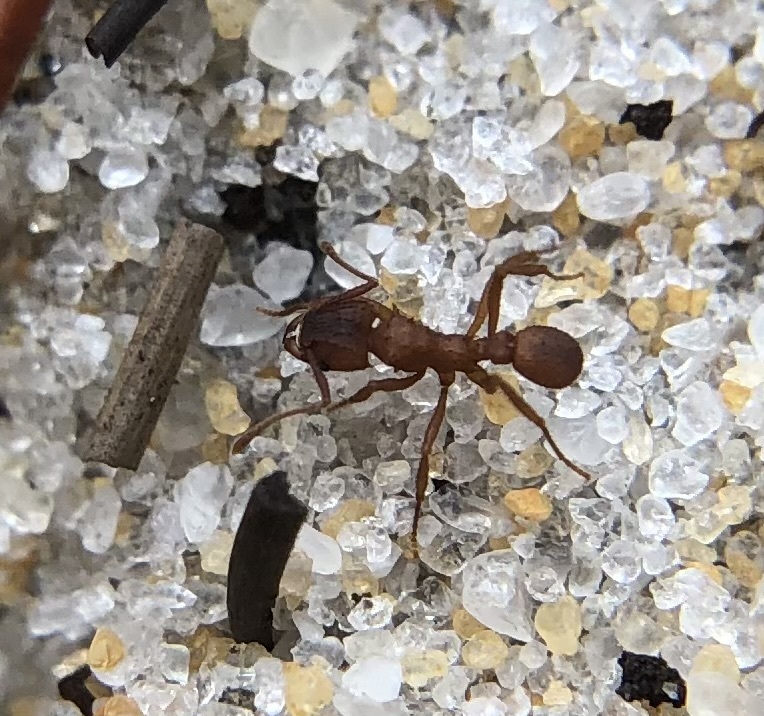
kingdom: Animalia
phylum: Arthropoda
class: Insecta
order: Hymenoptera
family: Formicidae
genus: Trachymyrmex
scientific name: Trachymyrmex septentrionalis
